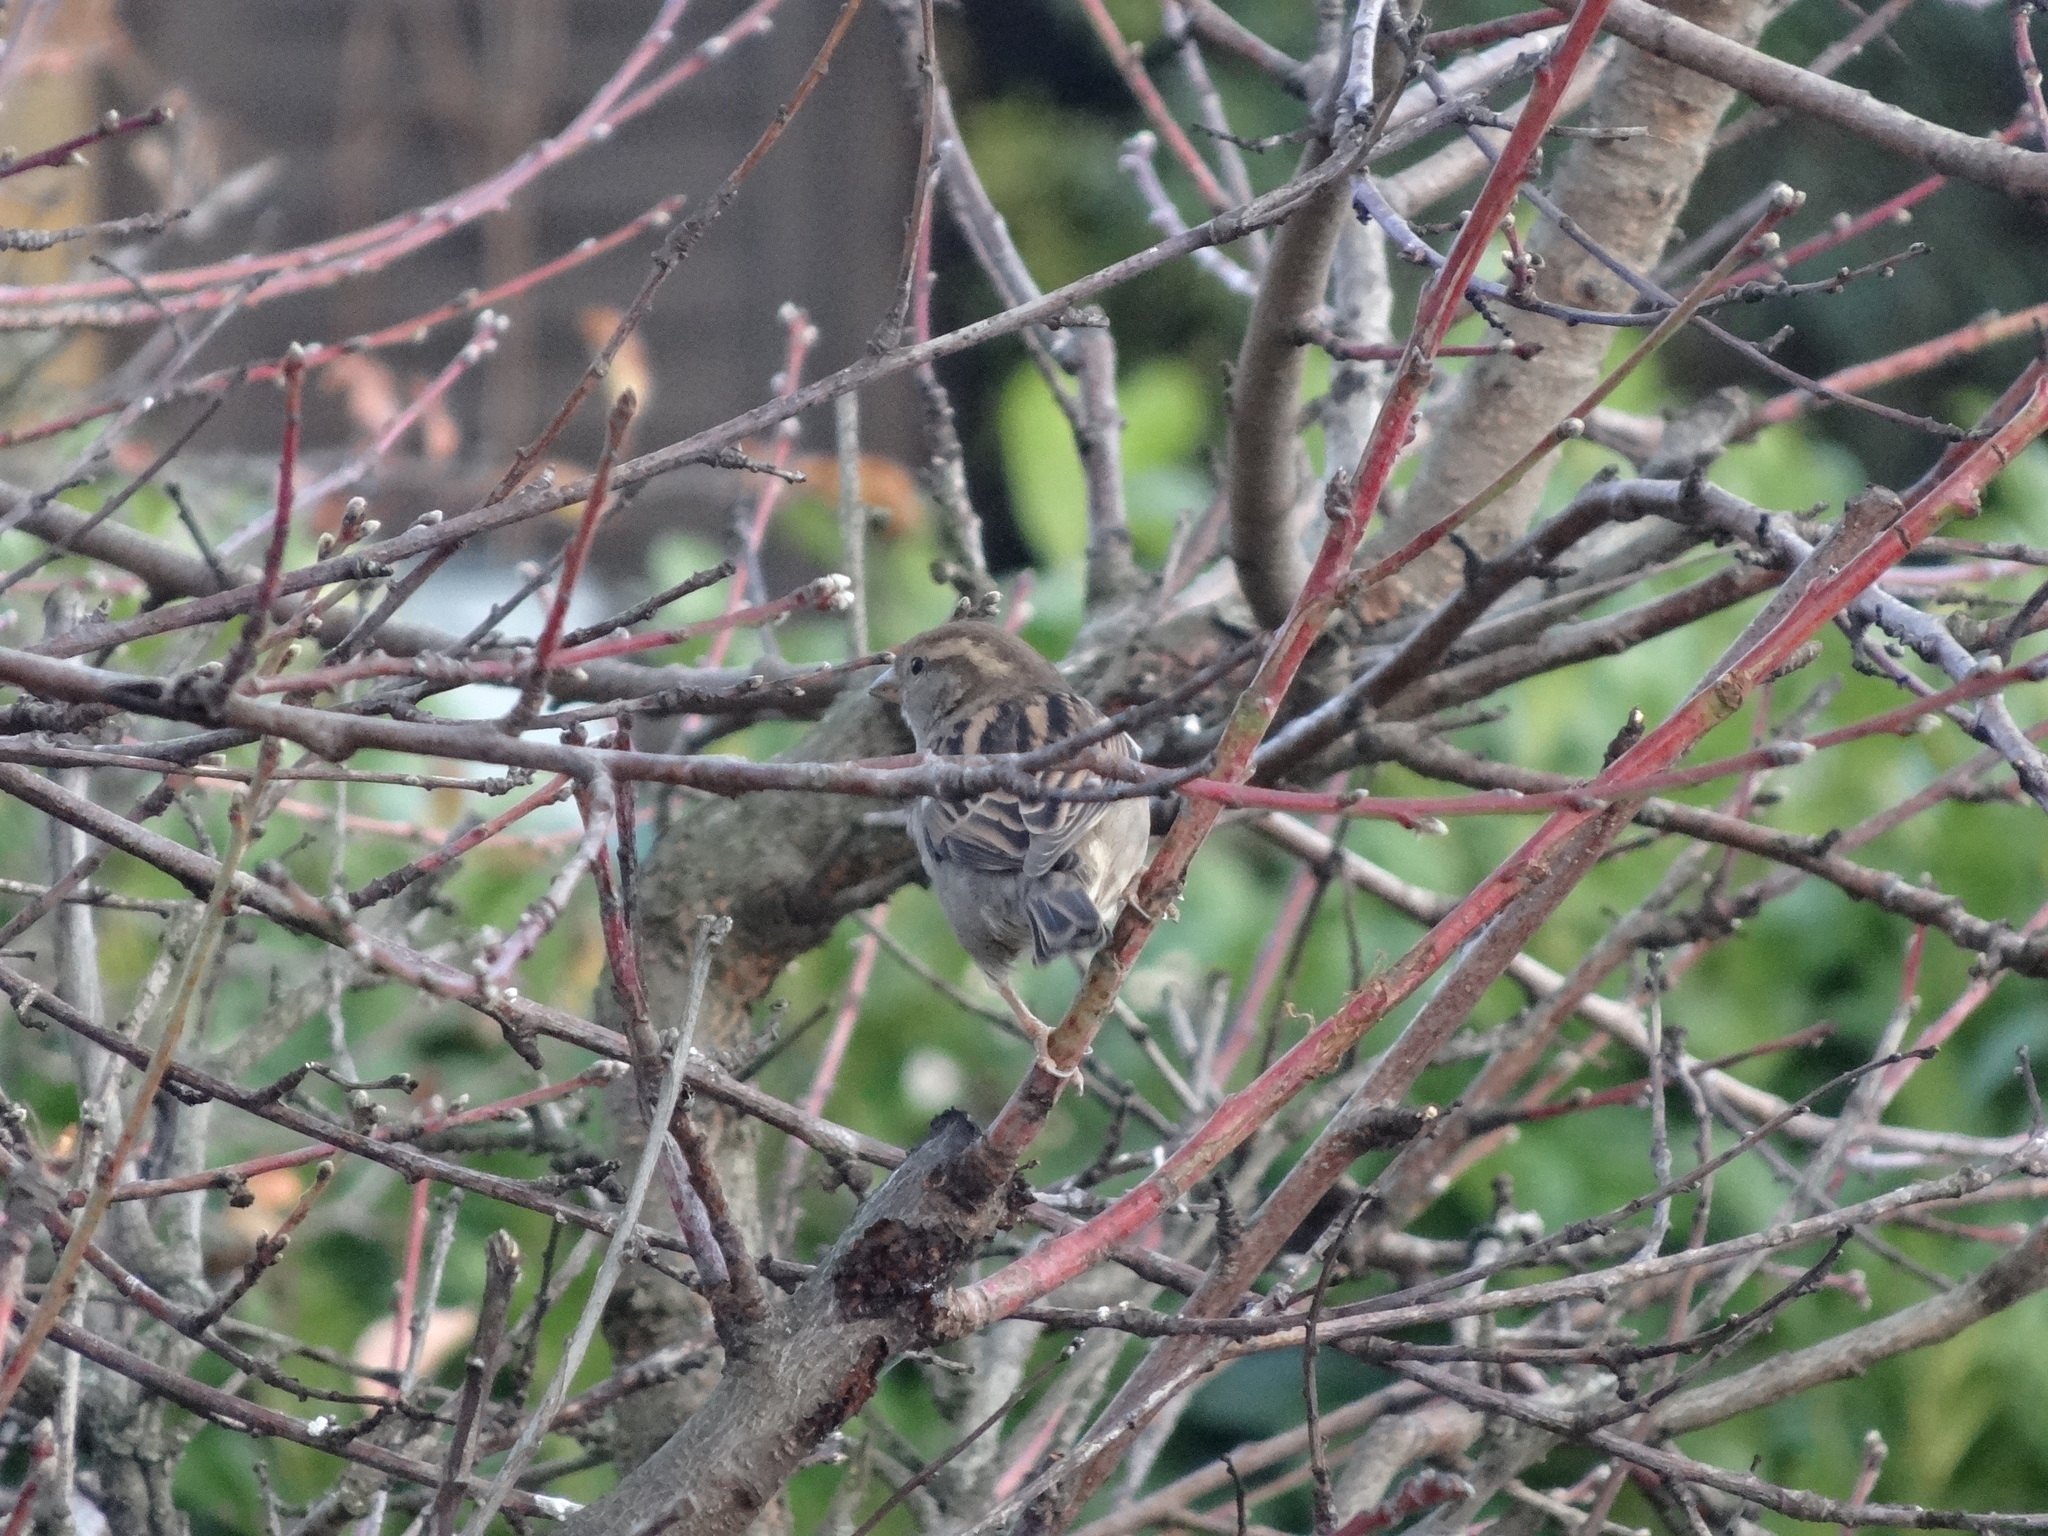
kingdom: Animalia
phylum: Chordata
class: Aves
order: Passeriformes
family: Passeridae
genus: Passer
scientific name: Passer domesticus
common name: House sparrow
